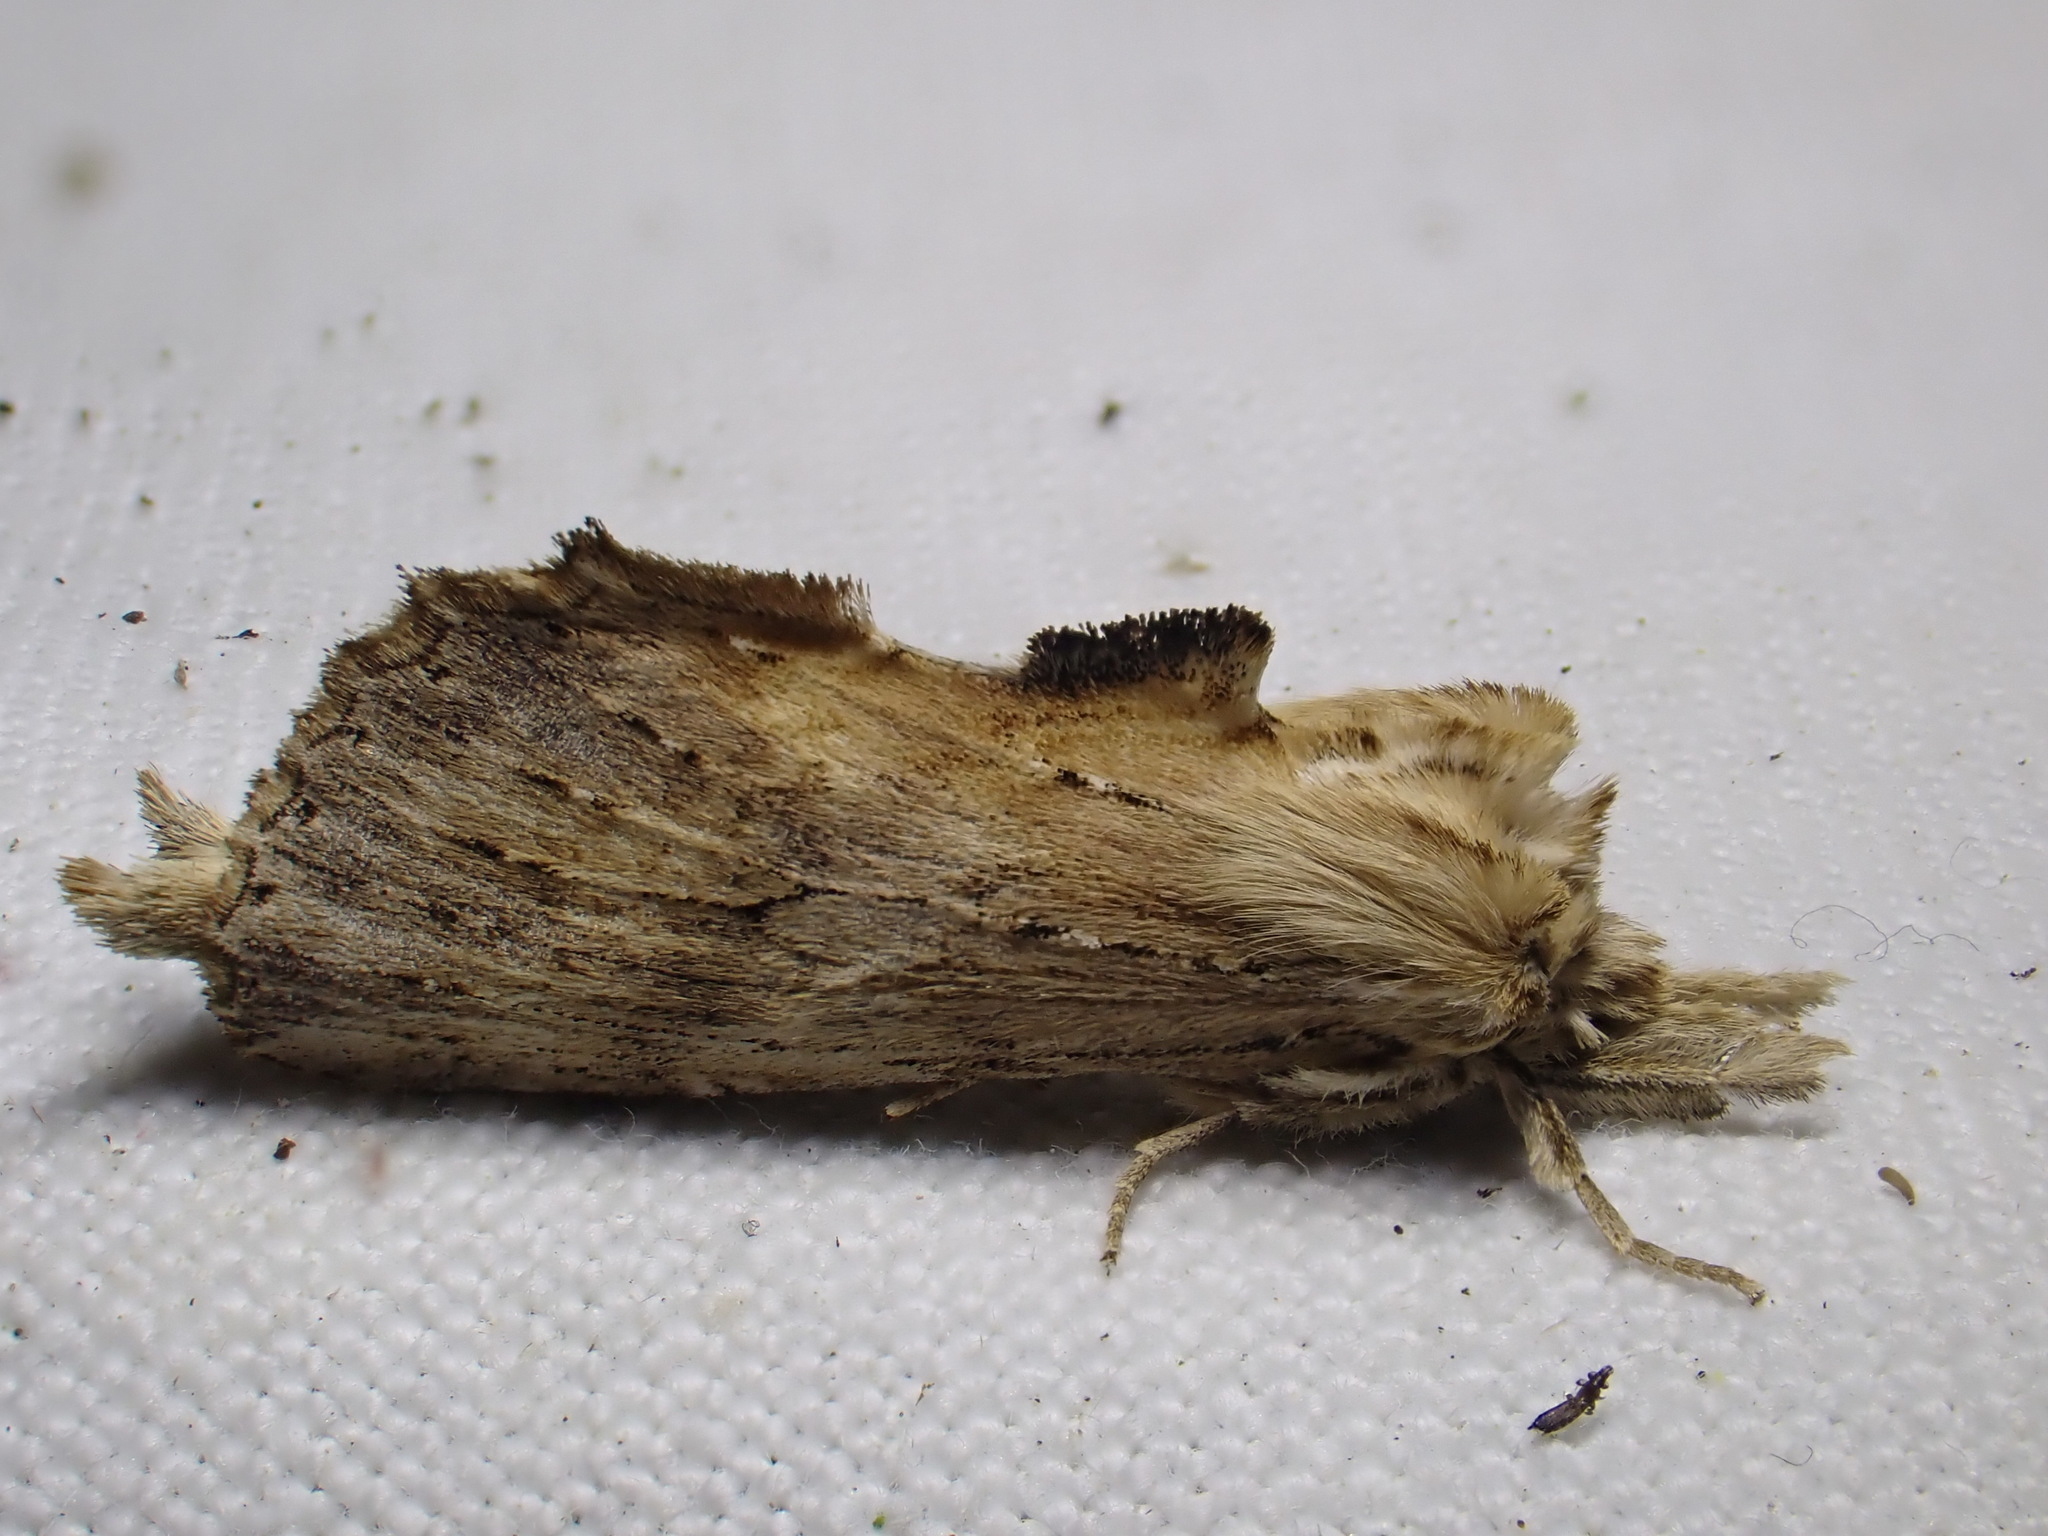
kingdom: Animalia
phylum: Arthropoda
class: Insecta
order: Lepidoptera
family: Notodontidae
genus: Pterostoma
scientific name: Pterostoma palpina
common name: Pale prominent
